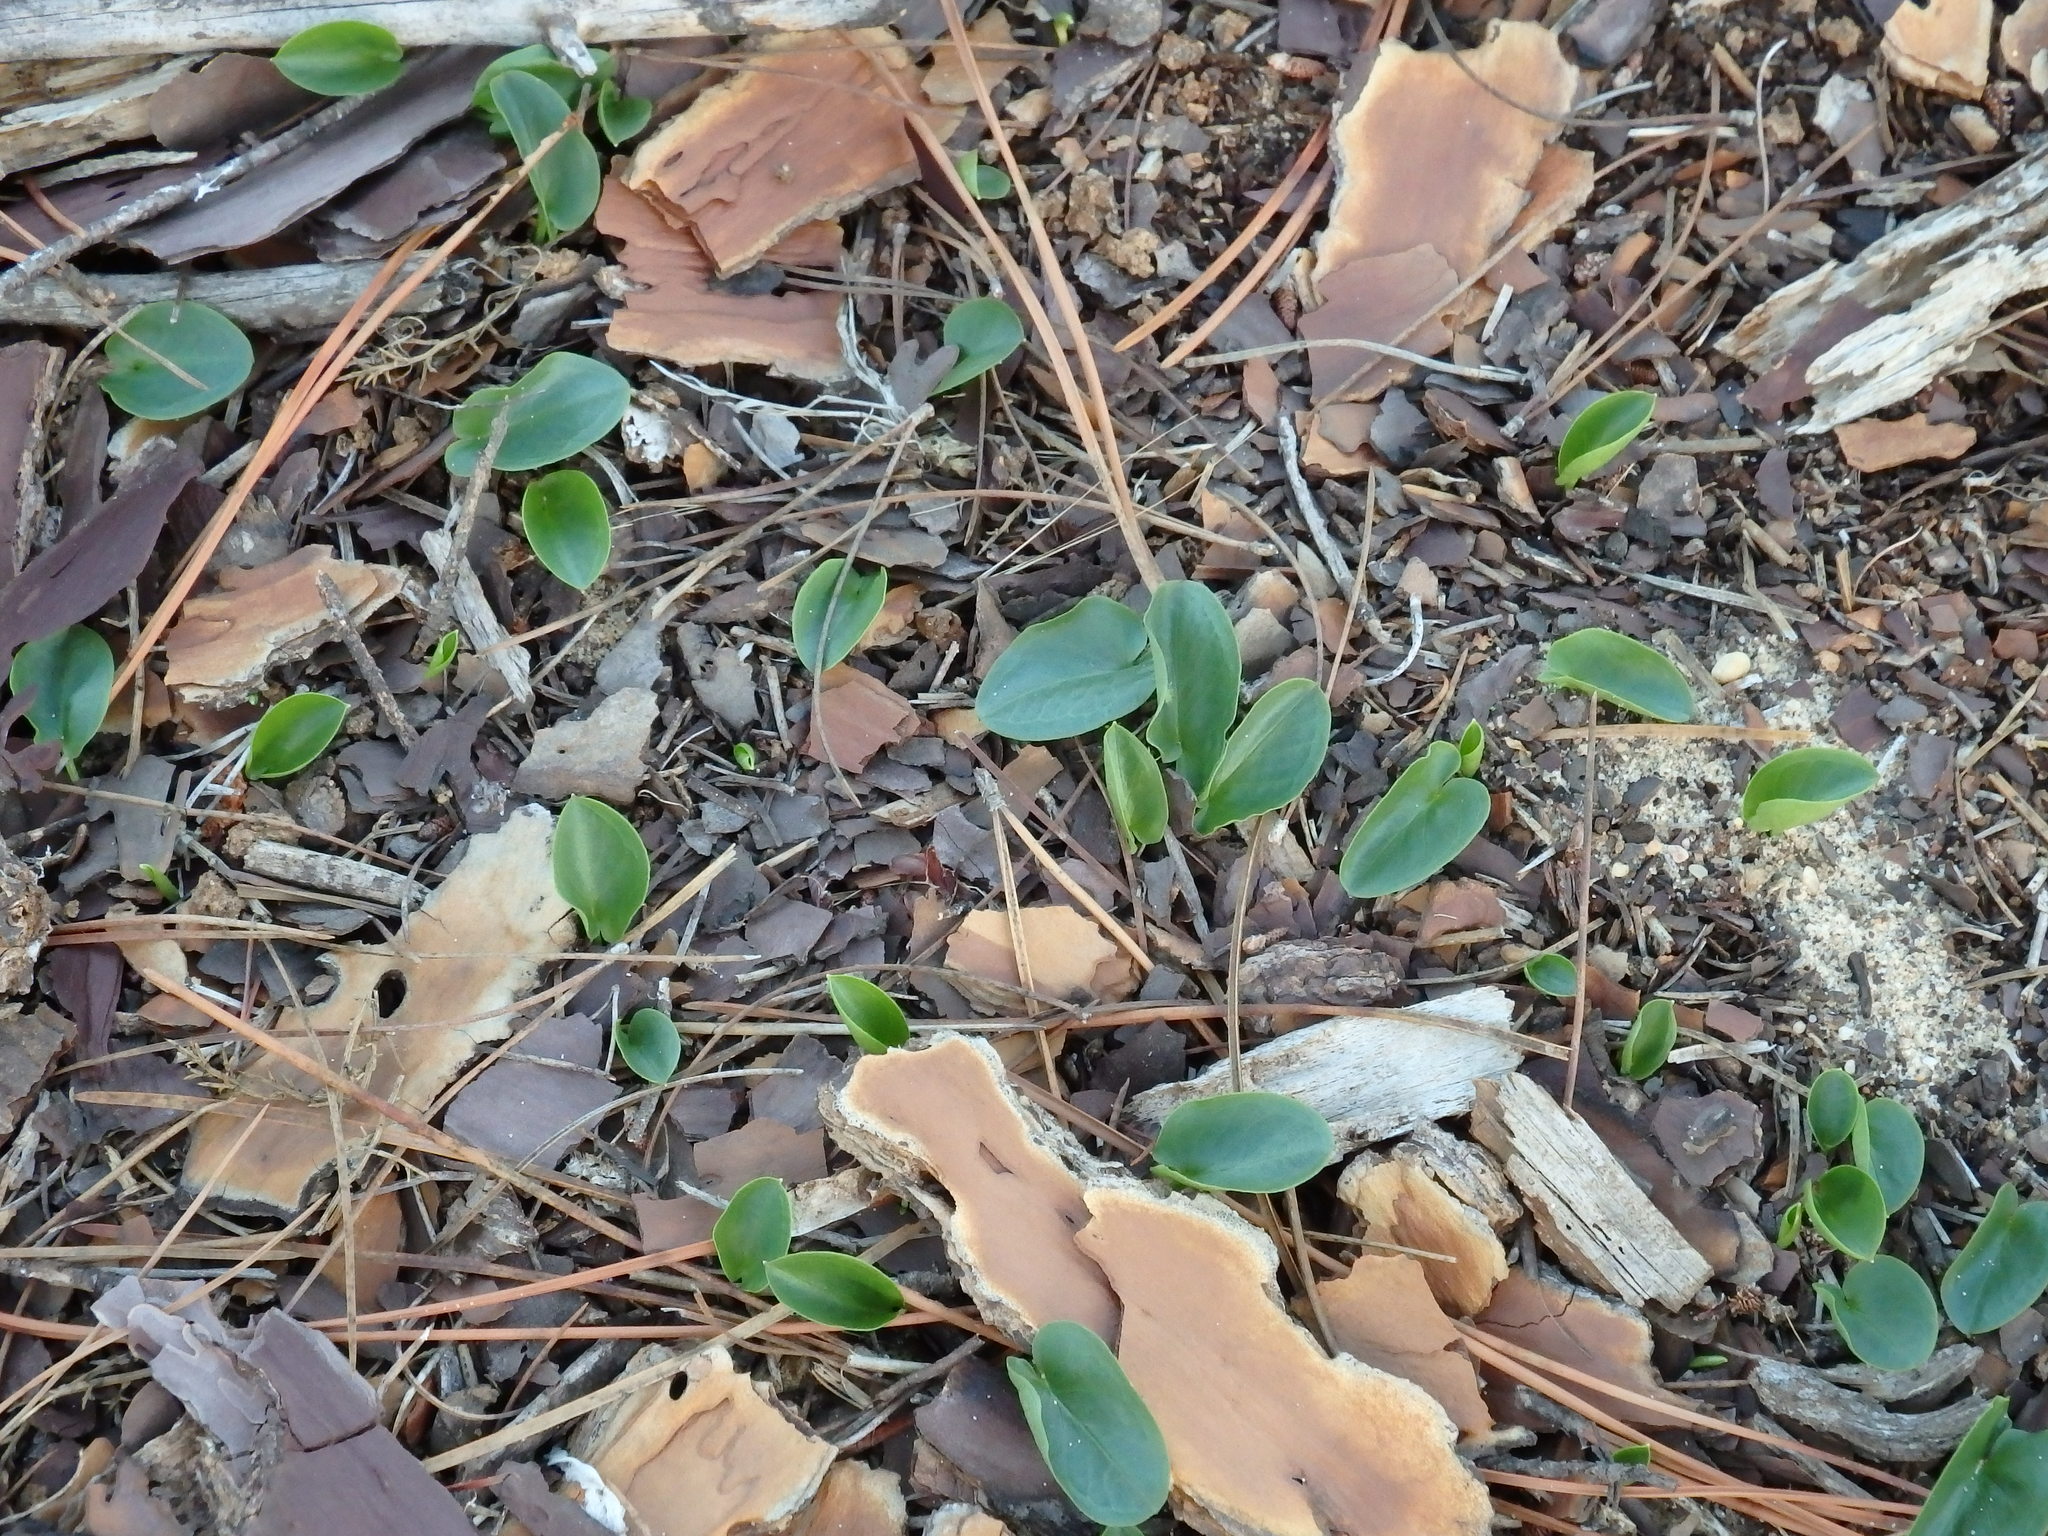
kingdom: Plantae
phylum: Tracheophyta
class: Liliopsida
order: Alismatales
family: Araceae
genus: Arisarum
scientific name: Arisarum simorrhinum
